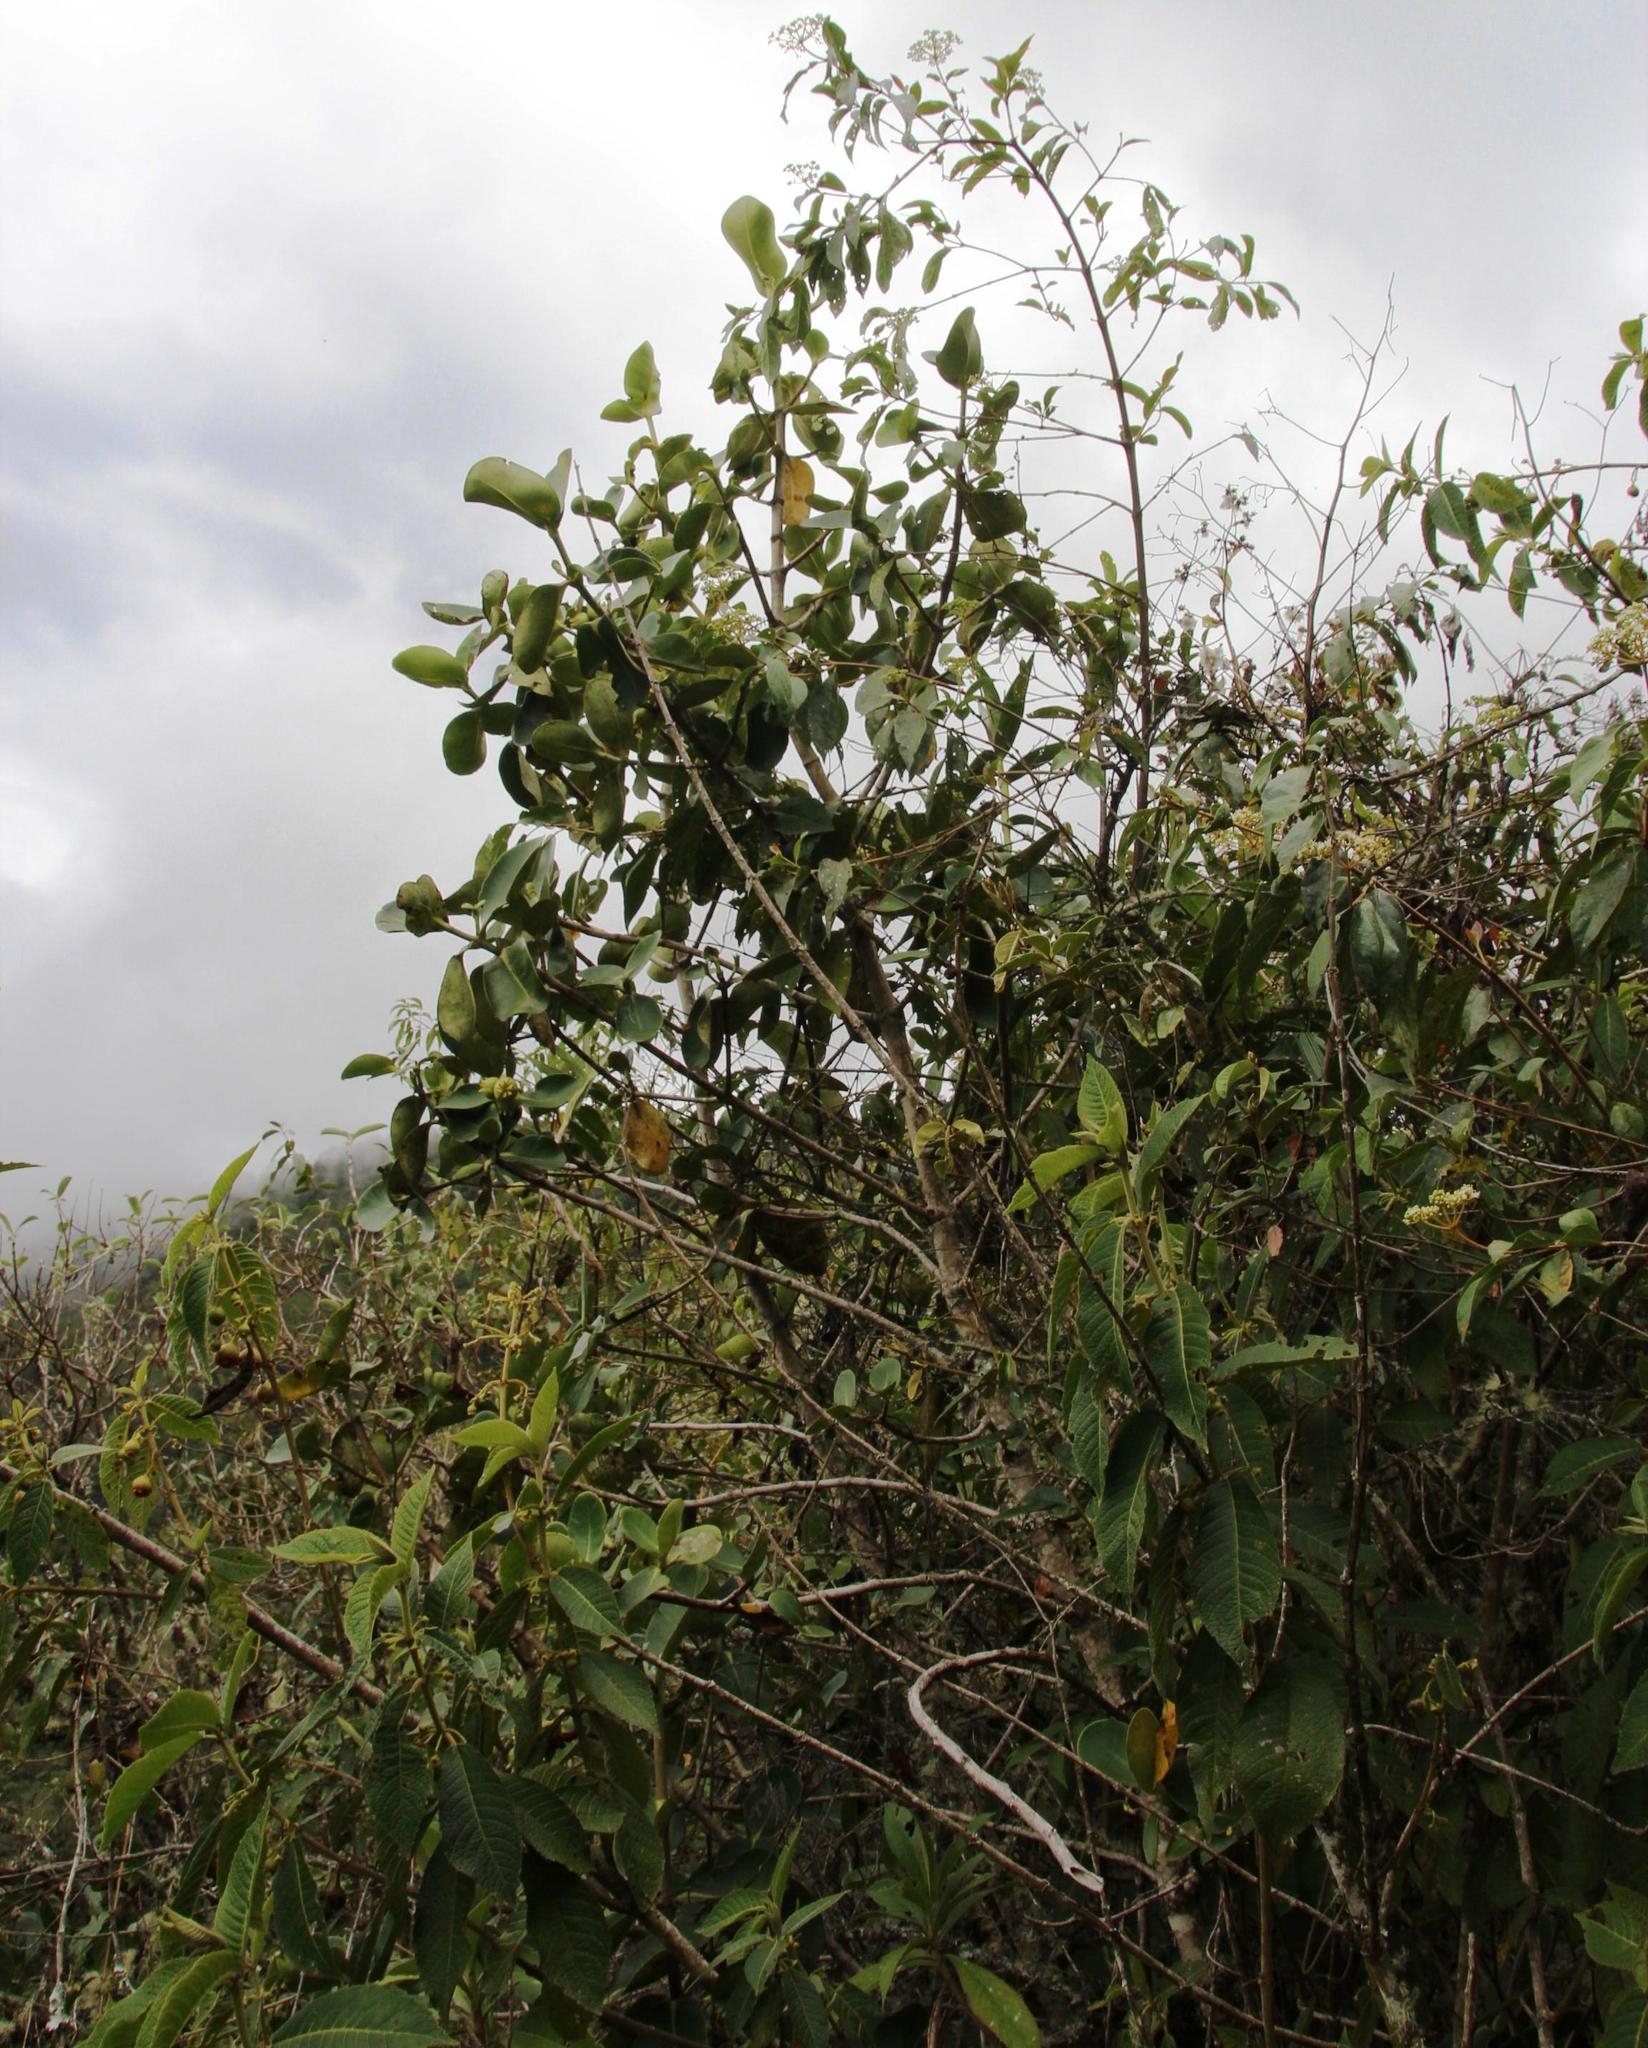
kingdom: Plantae
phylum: Tracheophyta
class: Magnoliopsida
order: Malpighiales
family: Clusiaceae
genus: Clusia
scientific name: Clusia trochiformis
